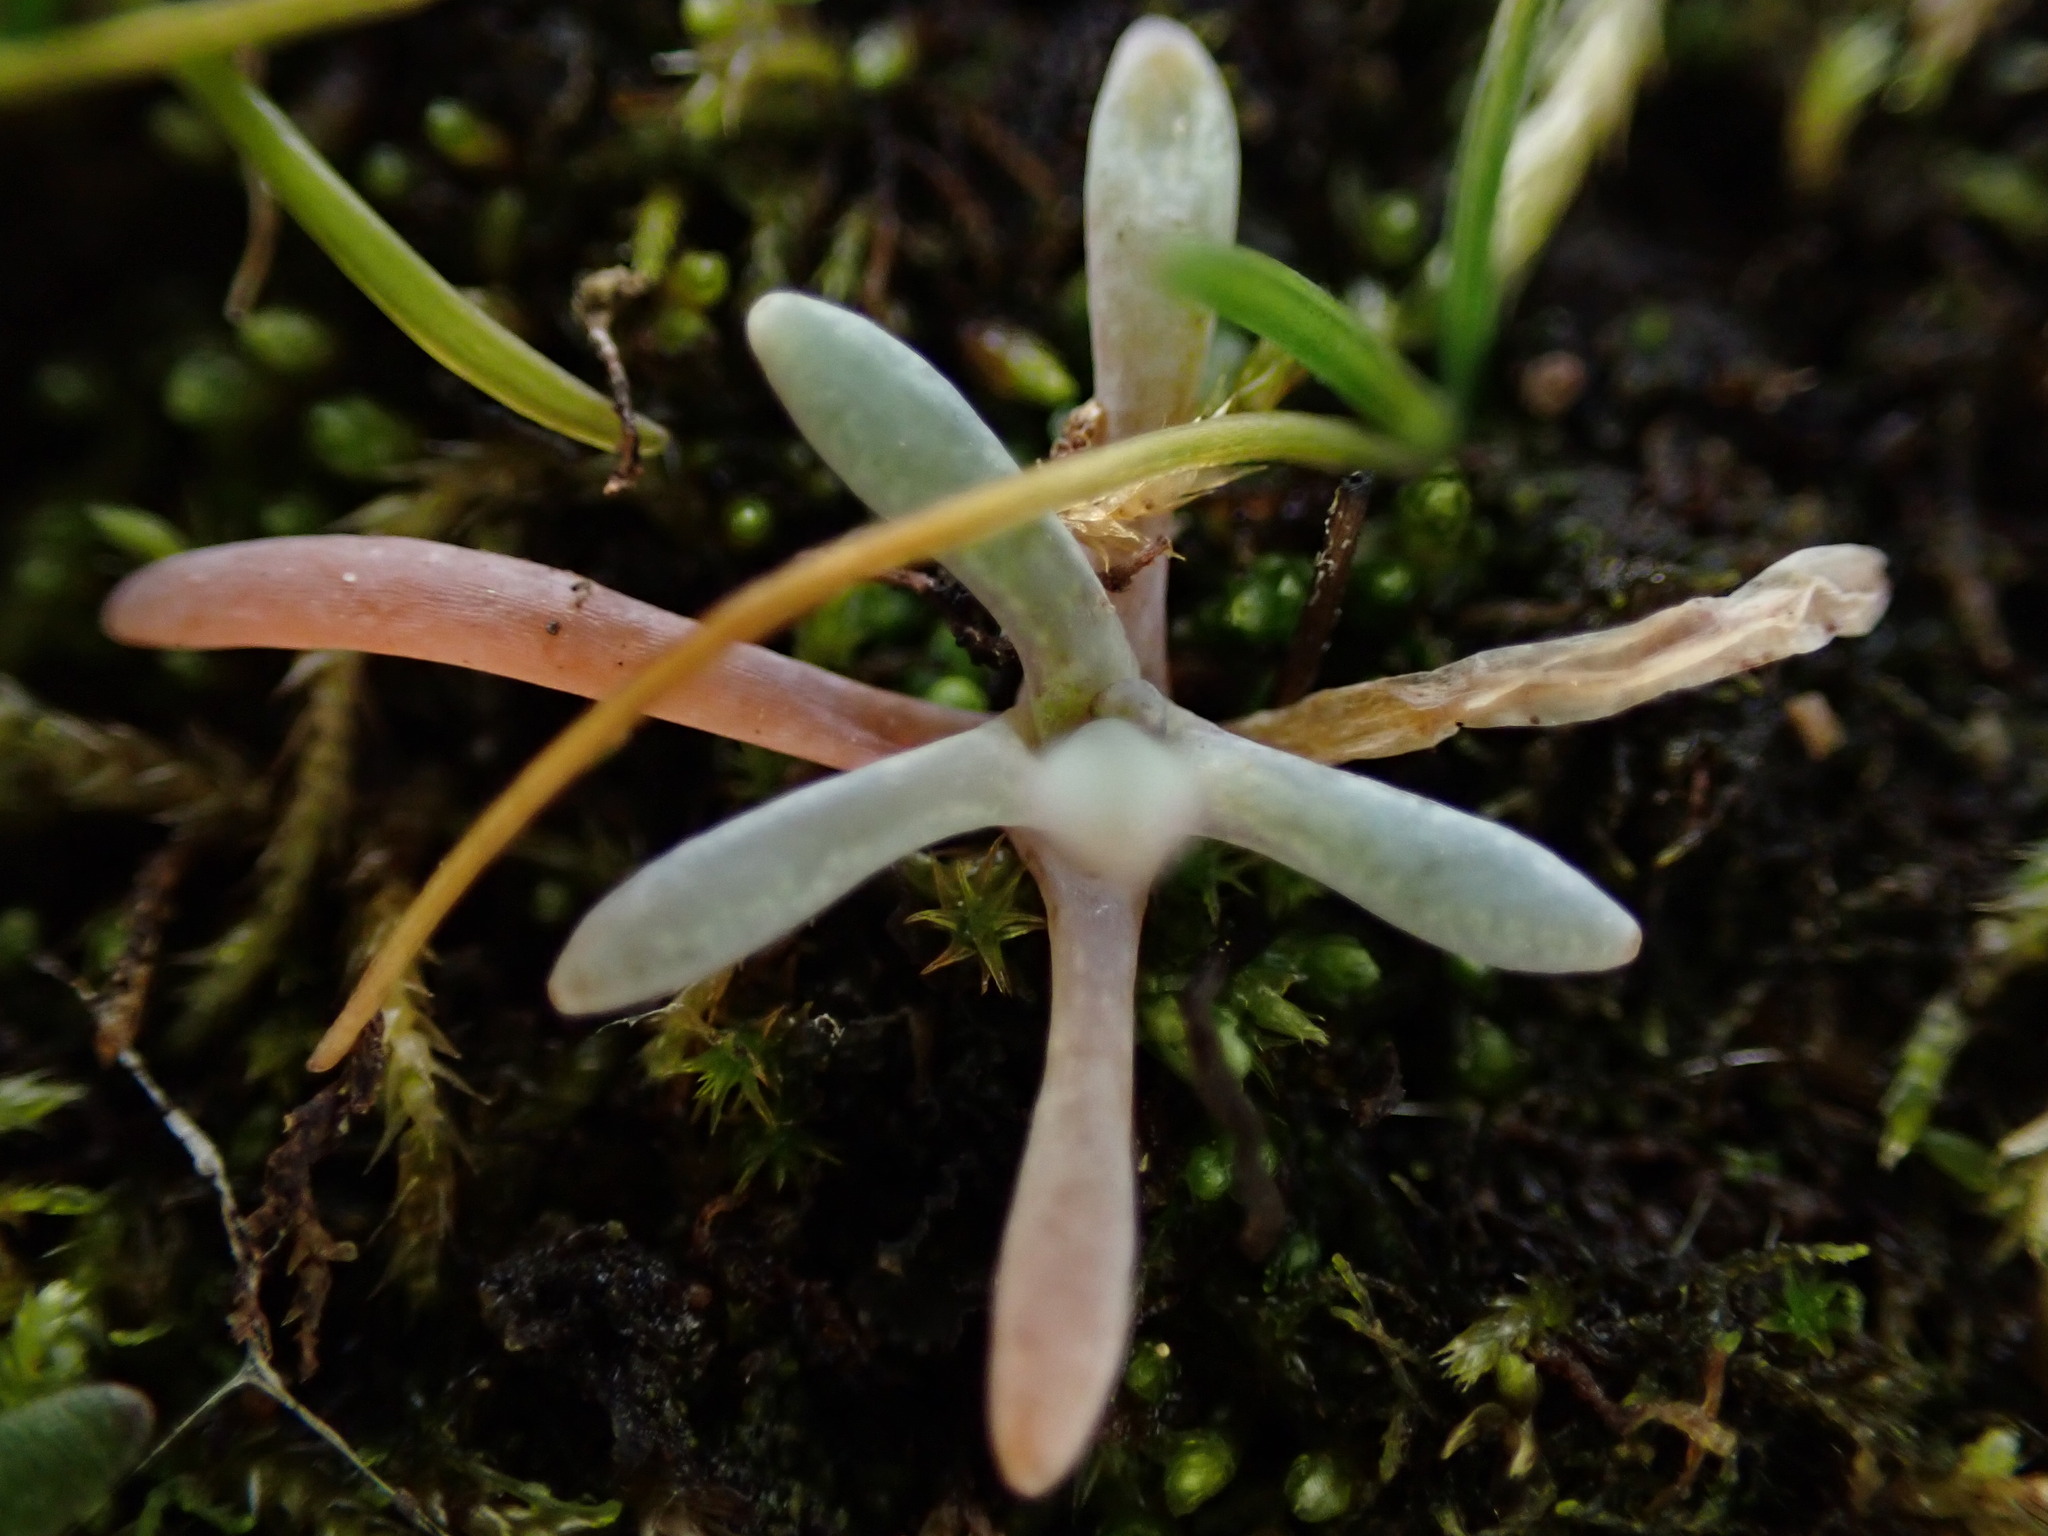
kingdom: Plantae
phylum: Tracheophyta
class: Magnoliopsida
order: Caryophyllales
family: Montiaceae
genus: Claytonia
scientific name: Claytonia exigua
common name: Pale spring beauty
